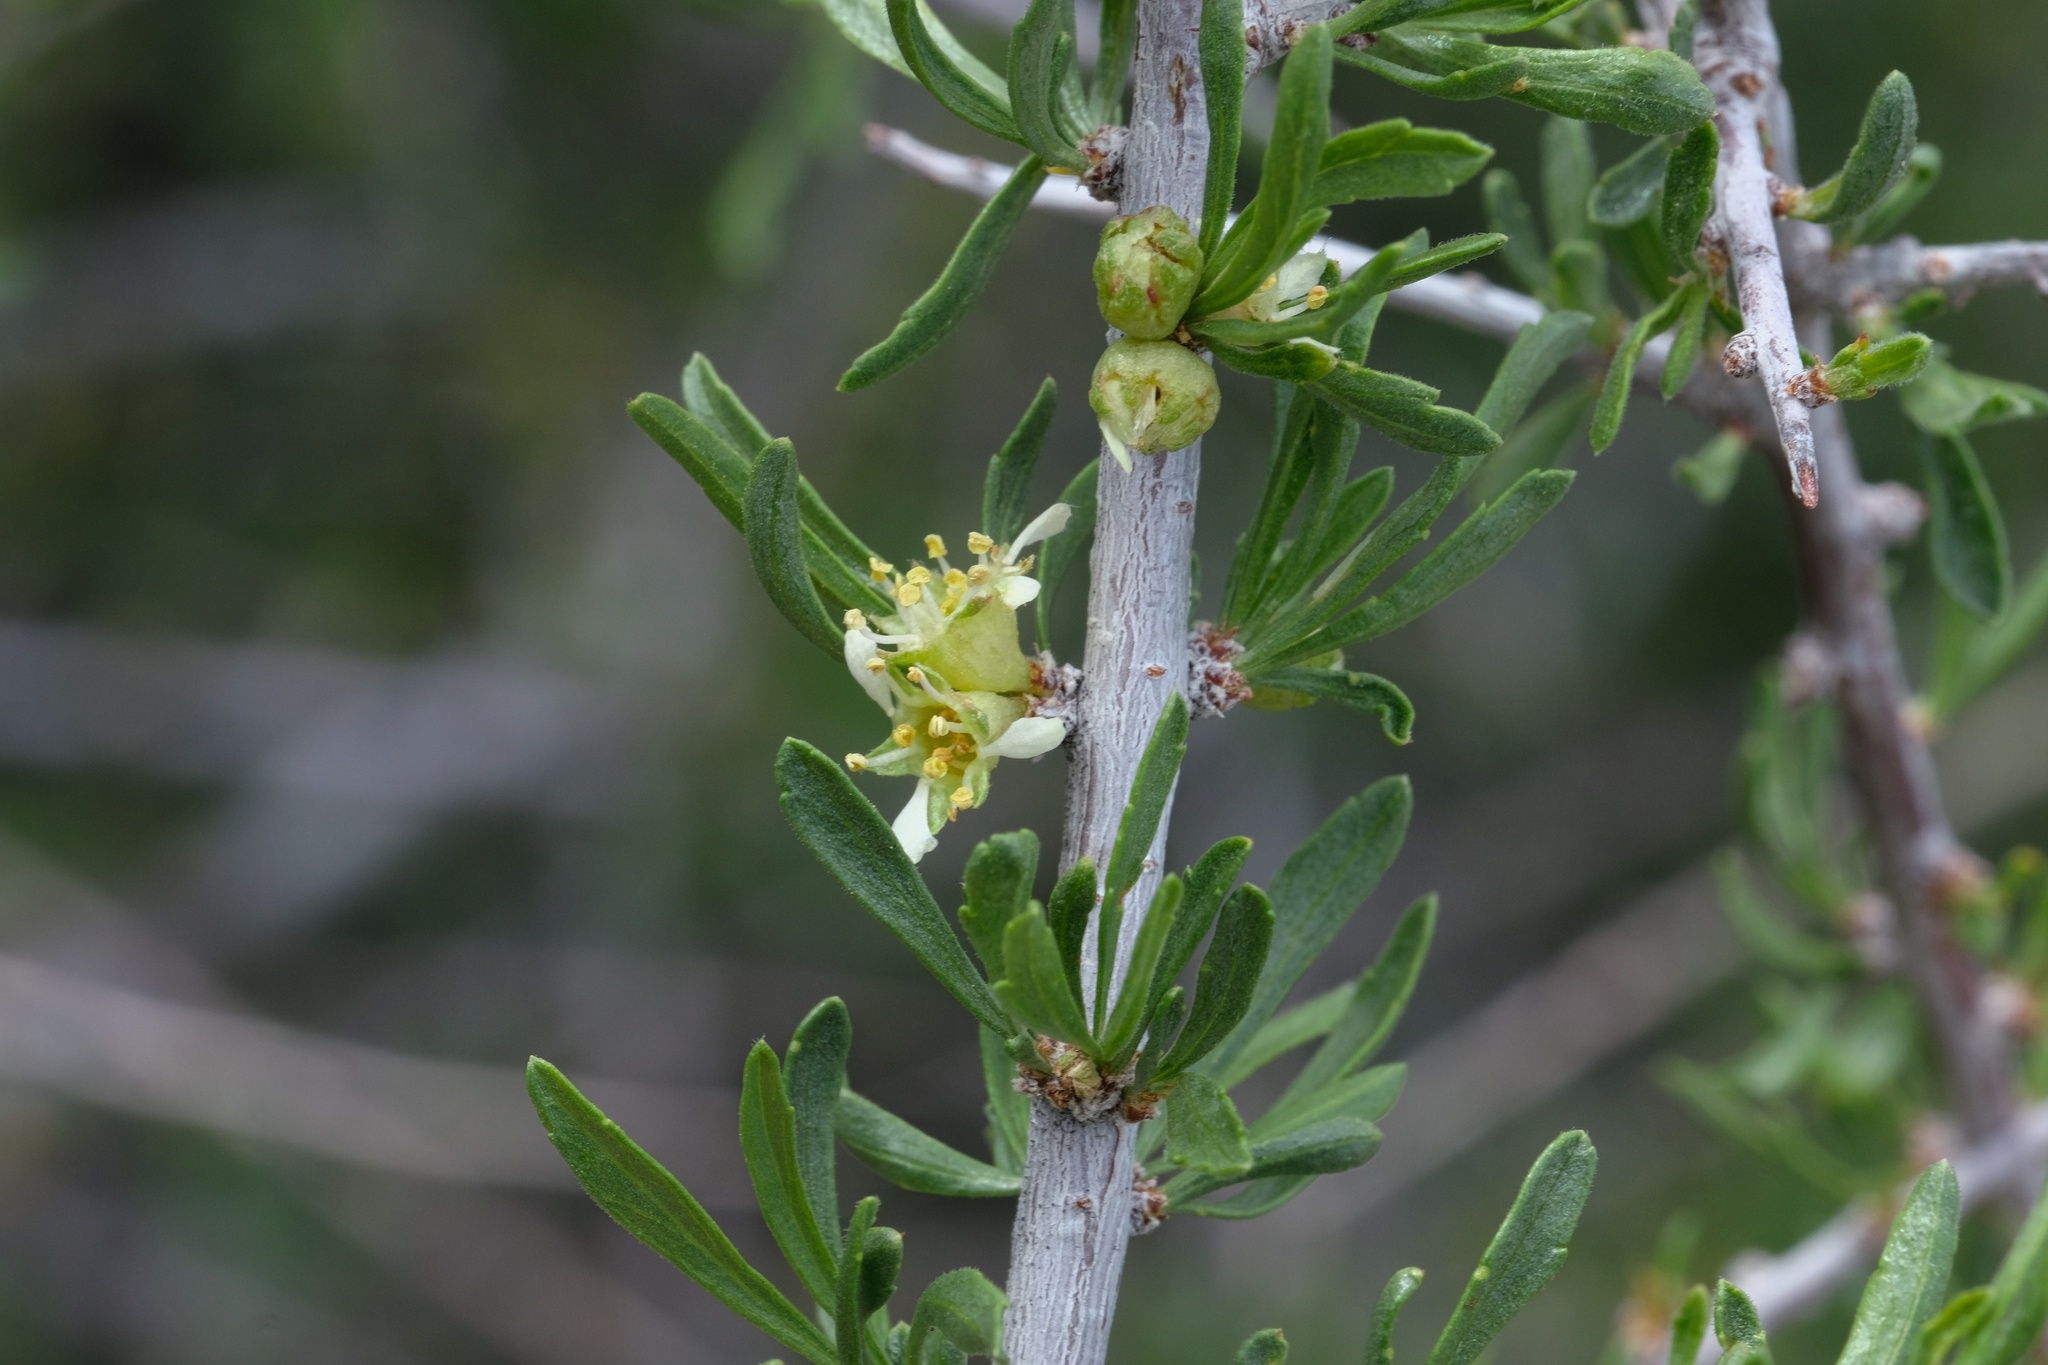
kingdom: Plantae
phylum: Tracheophyta
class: Magnoliopsida
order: Rosales
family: Rosaceae
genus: Prunus
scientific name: Prunus fasciculata
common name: Desert almond
